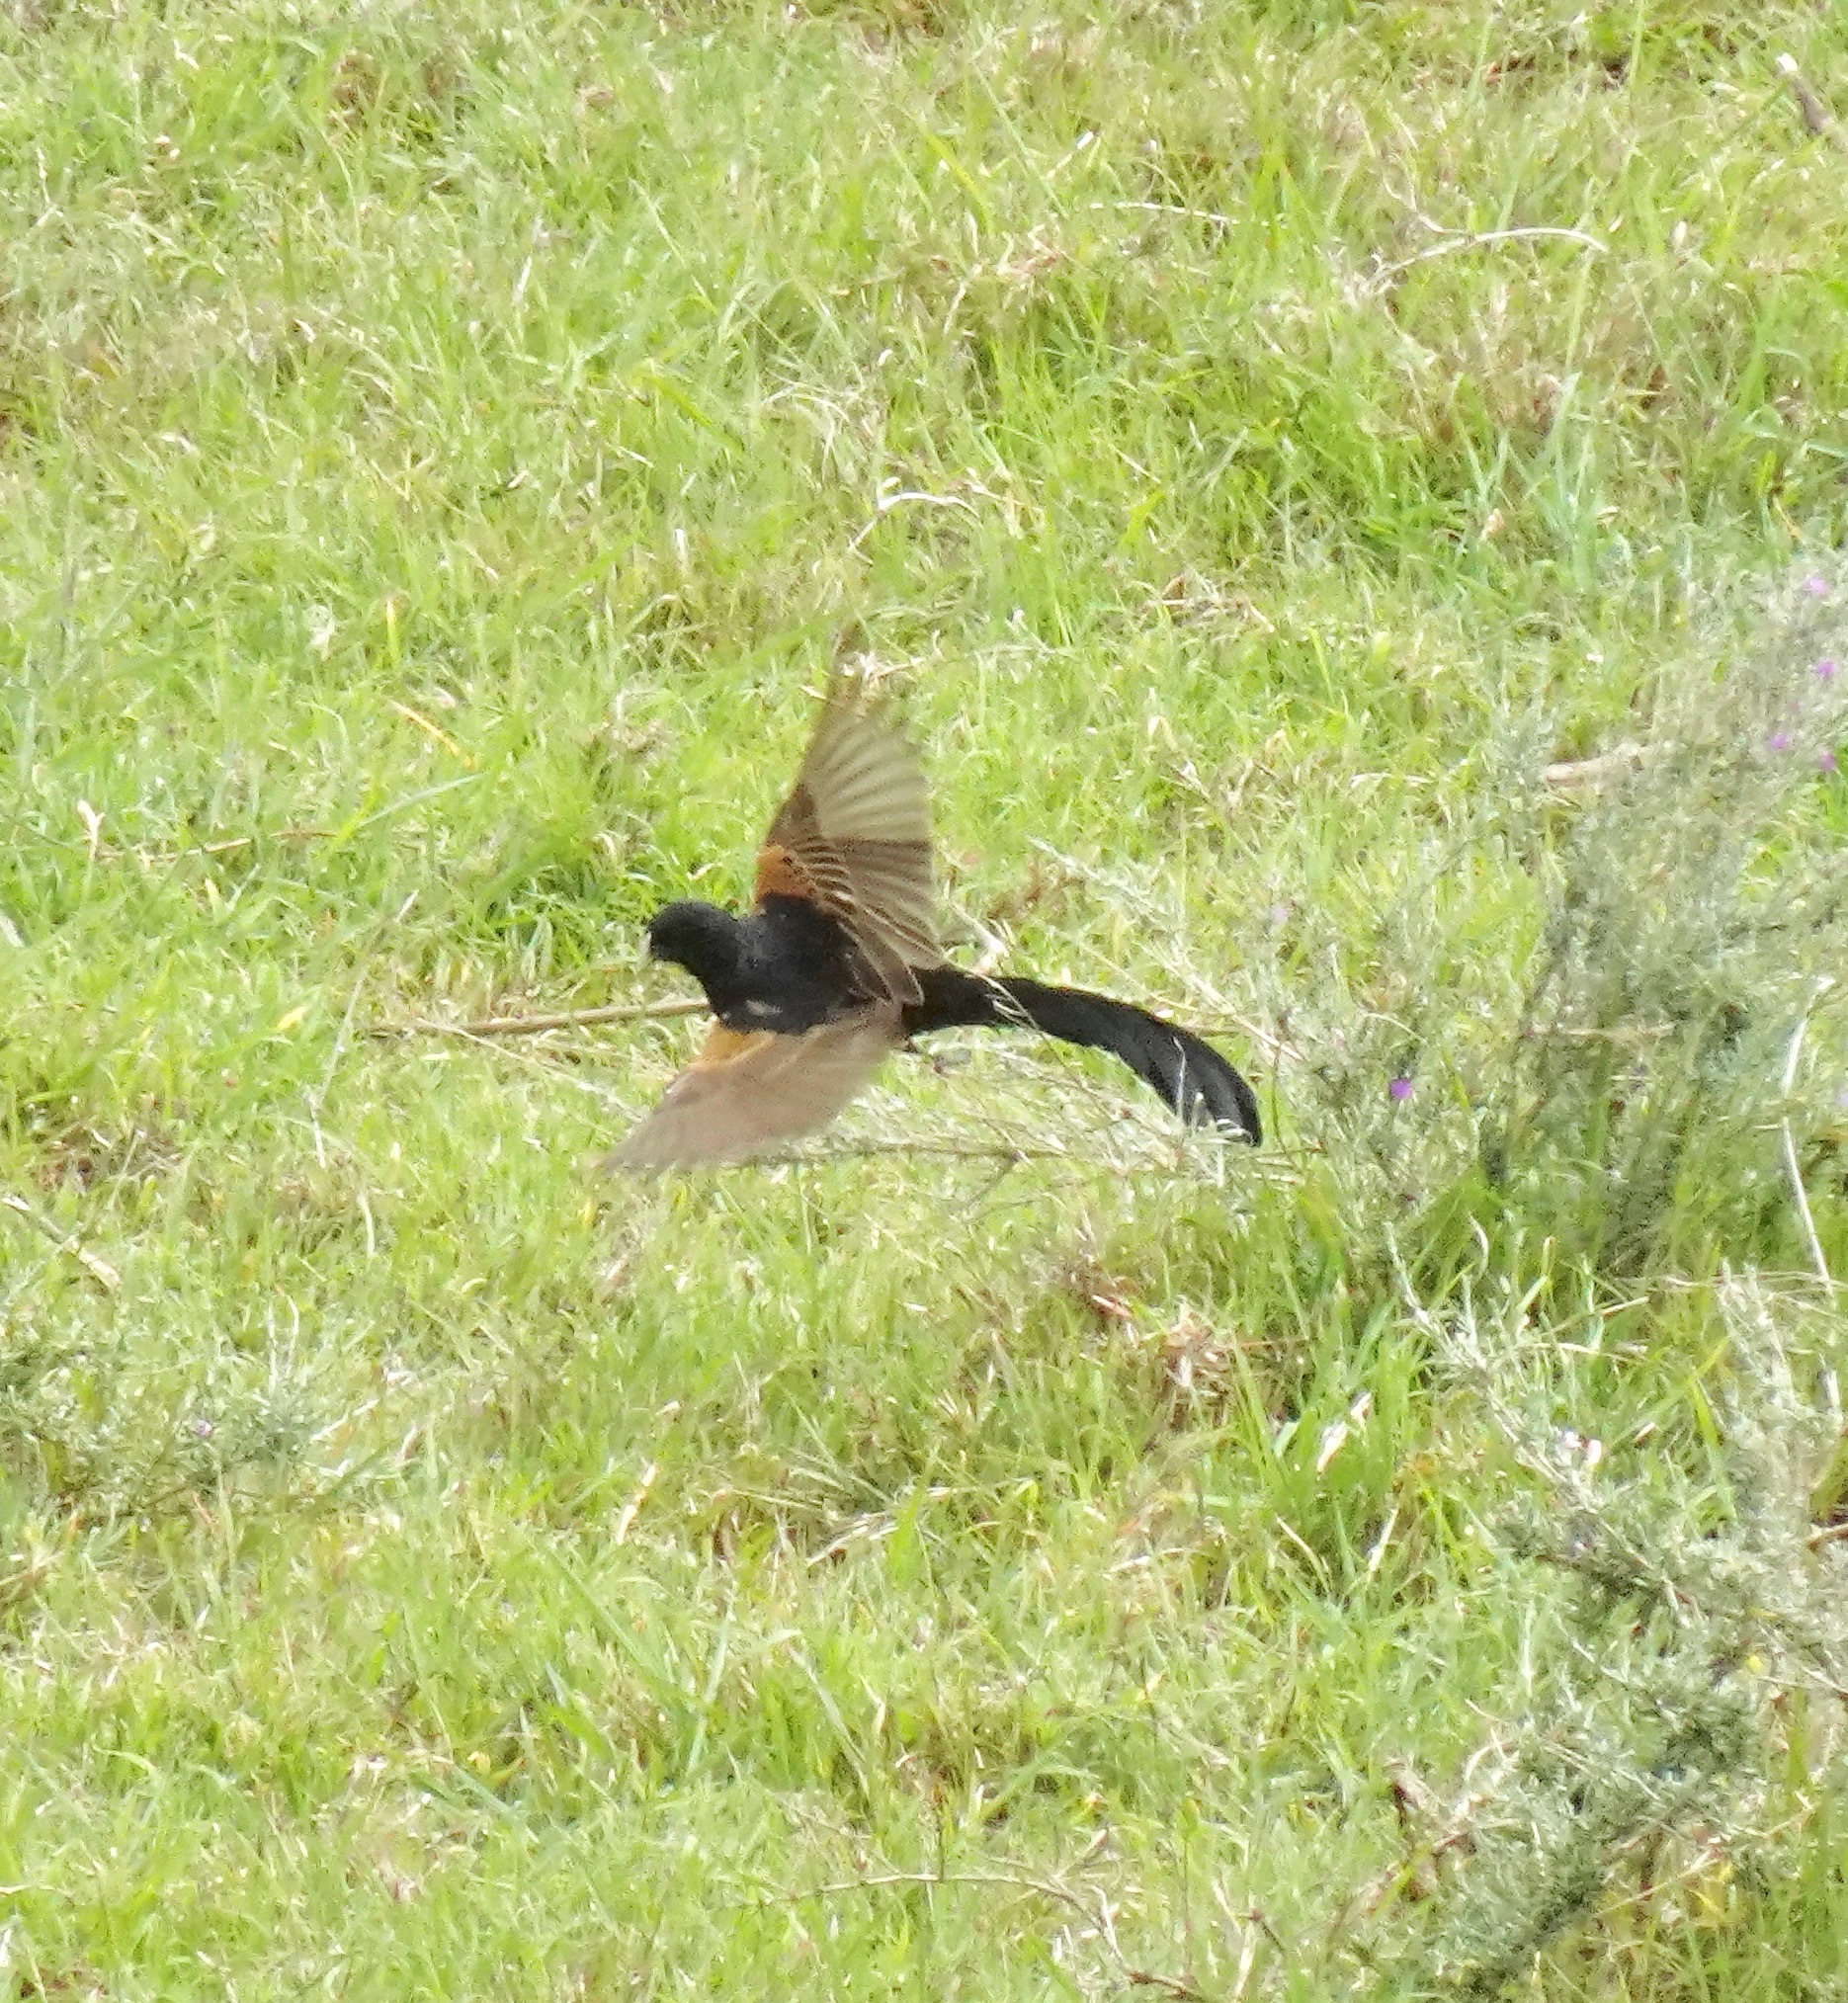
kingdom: Animalia
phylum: Chordata
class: Aves
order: Passeriformes
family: Ploceidae
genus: Euplectes
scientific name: Euplectes jacksoni
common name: Jackson's widowbird
